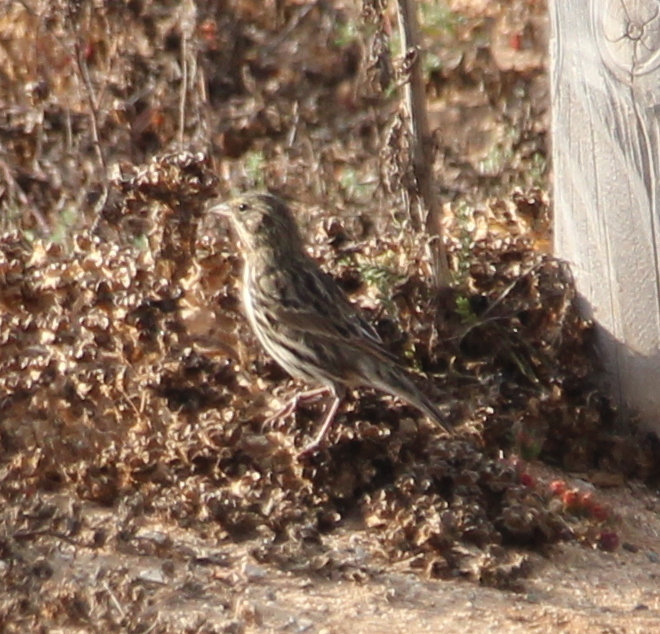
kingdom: Animalia
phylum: Chordata
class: Aves
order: Passeriformes
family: Passerellidae
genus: Passerculus
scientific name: Passerculus sandwichensis
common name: Savannah sparrow
